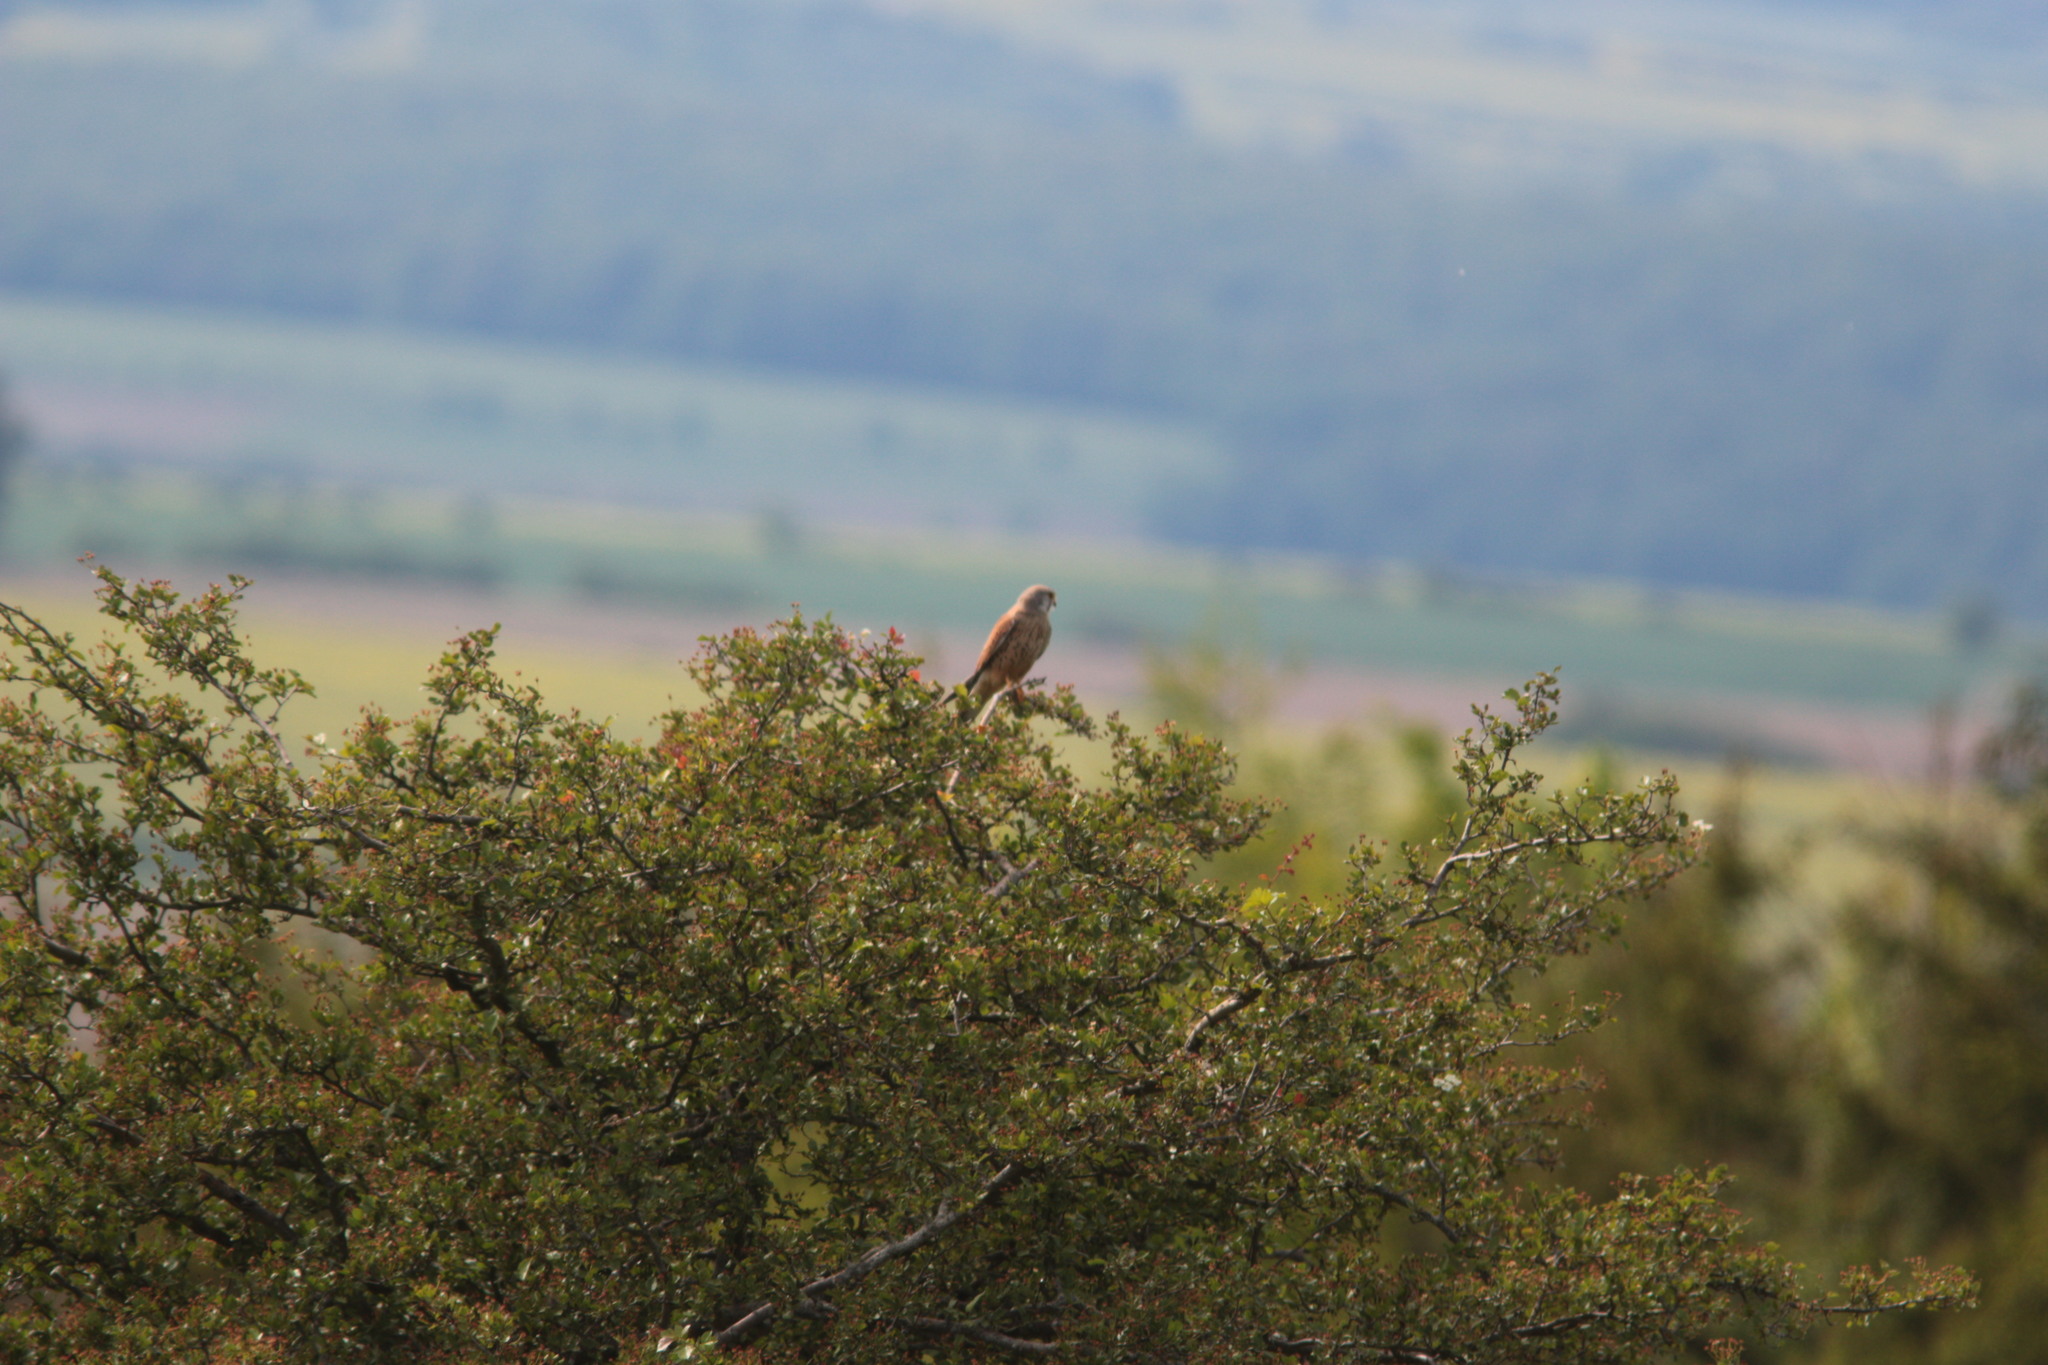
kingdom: Animalia
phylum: Chordata
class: Aves
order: Falconiformes
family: Falconidae
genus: Falco
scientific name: Falco tinnunculus
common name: Common kestrel
